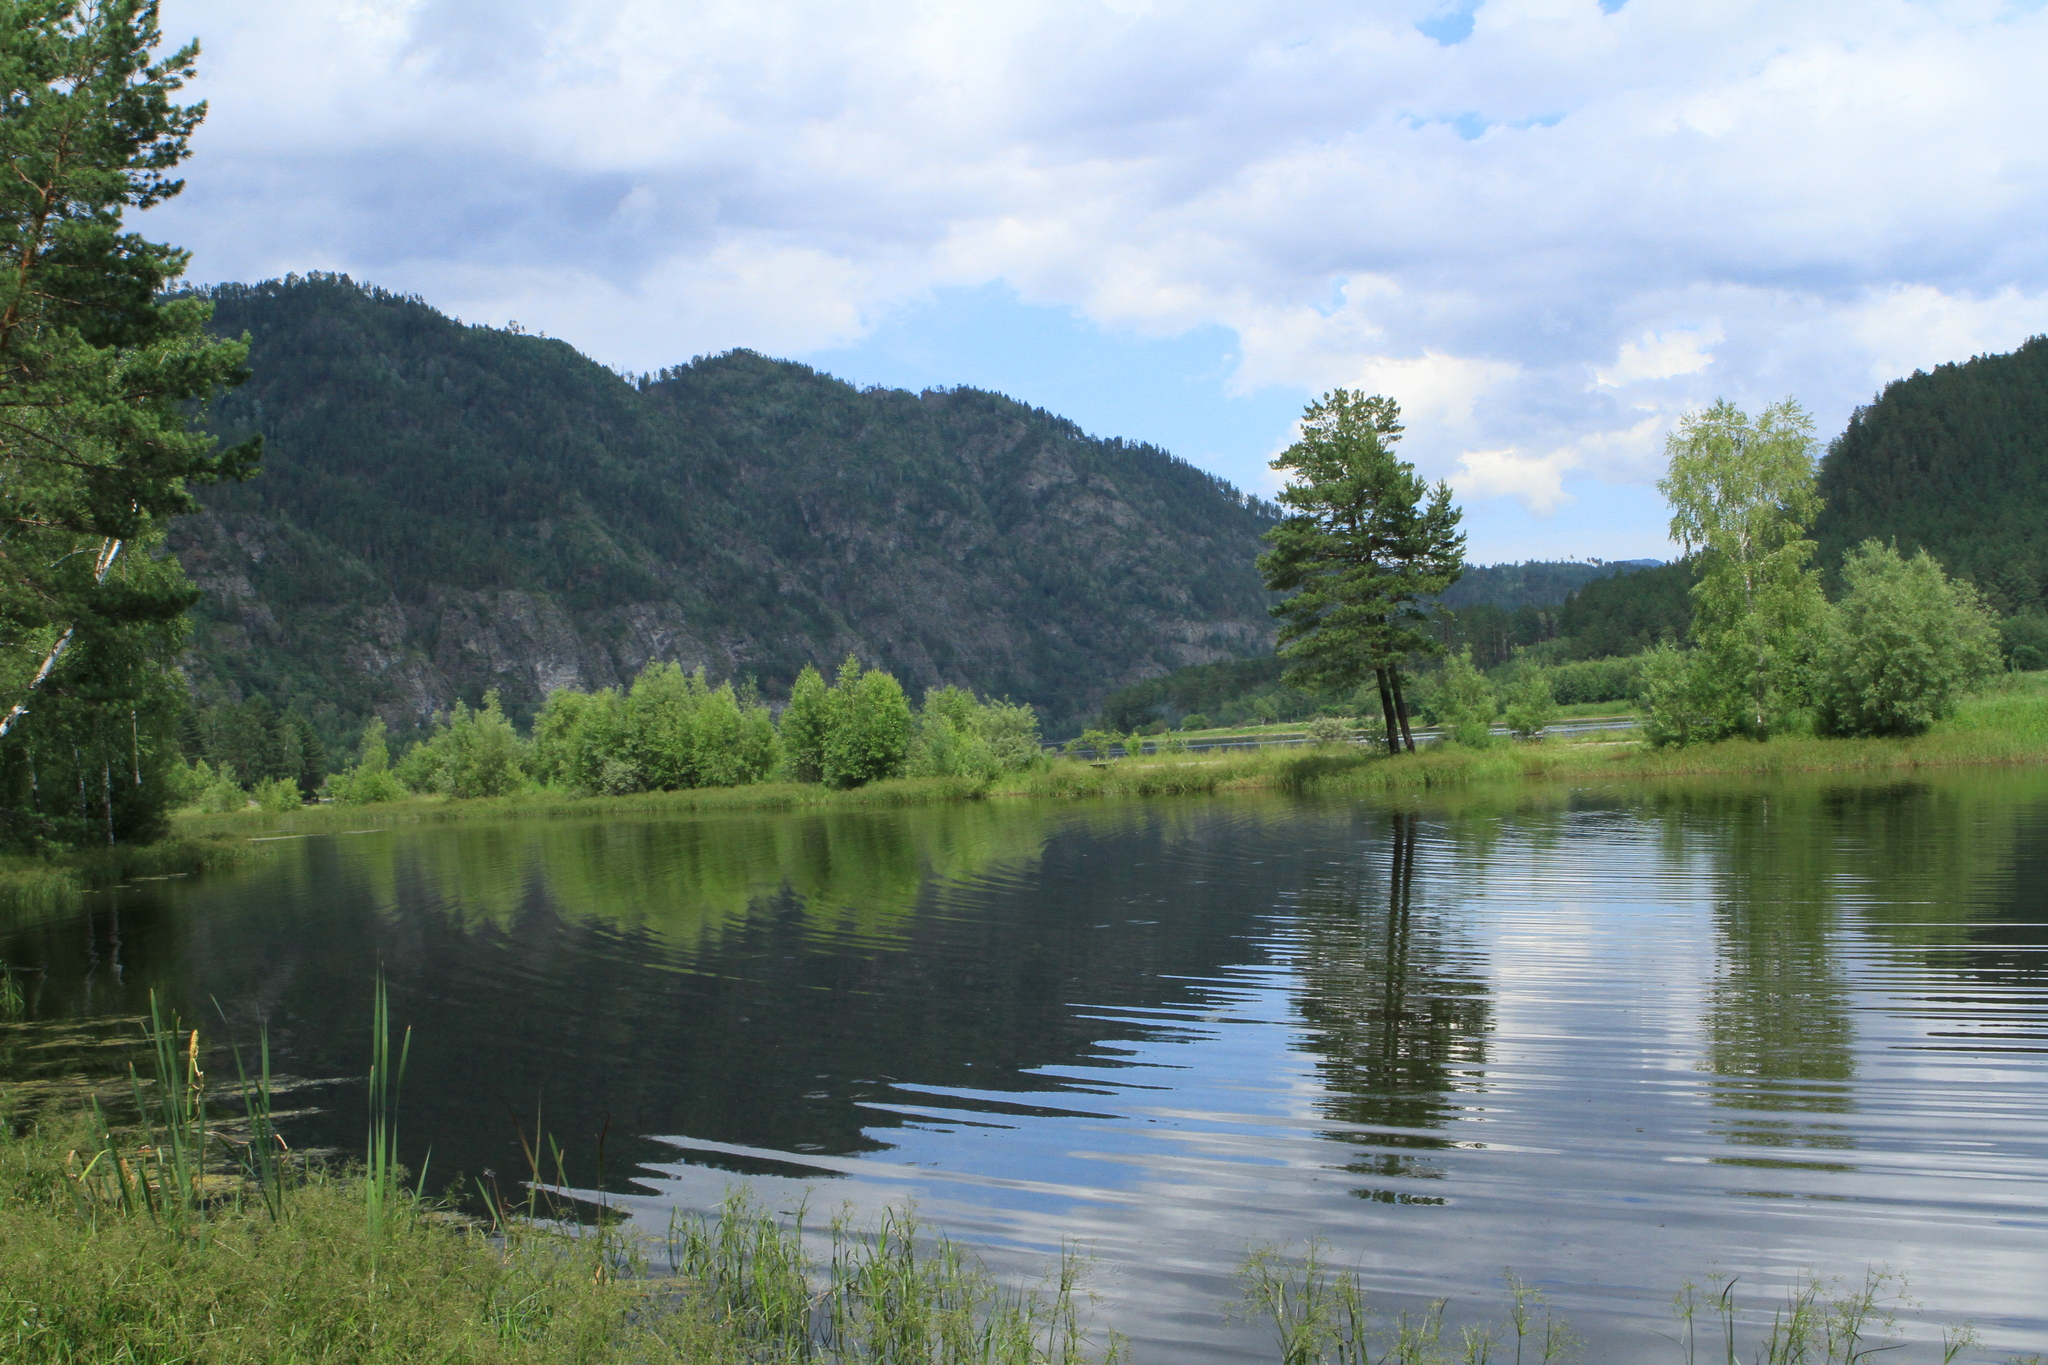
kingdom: Plantae
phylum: Tracheophyta
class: Pinopsida
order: Pinales
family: Pinaceae
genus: Pinus
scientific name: Pinus sylvestris
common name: Scots pine
